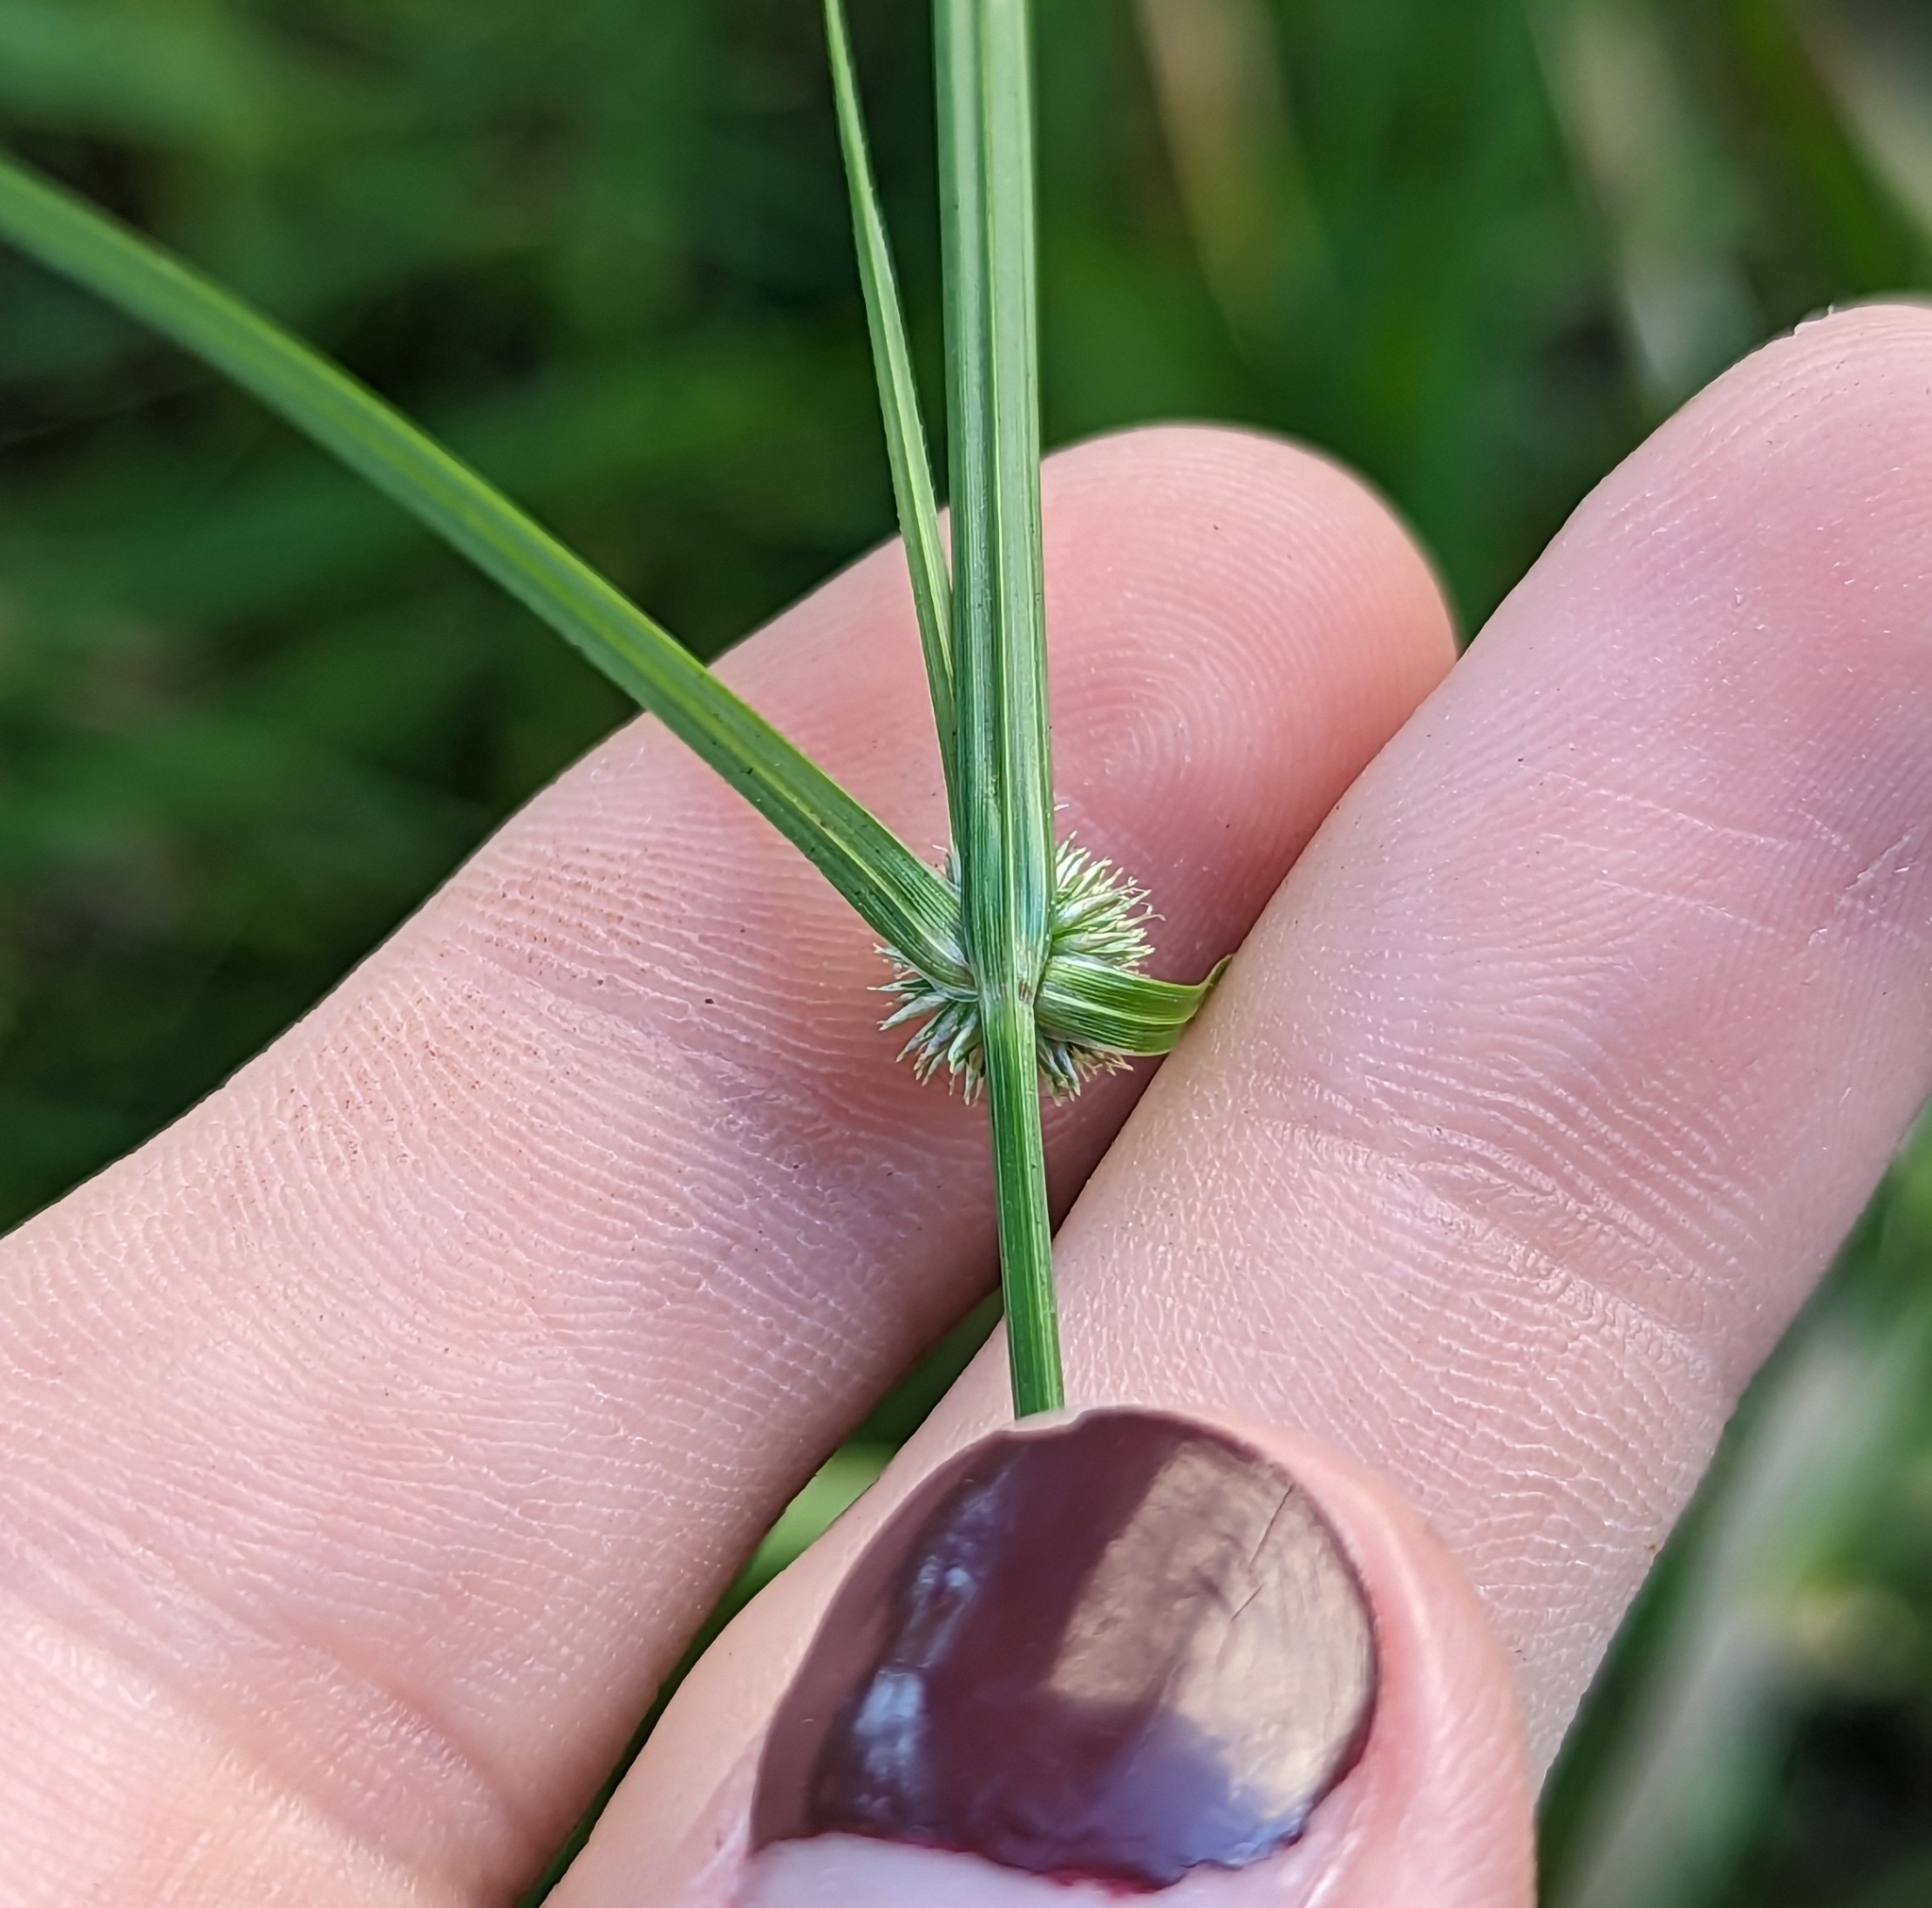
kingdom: Plantae
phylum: Tracheophyta
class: Liliopsida
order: Poales
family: Cyperaceae
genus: Cyperus
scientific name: Cyperus brevifolius
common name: Globe kyllinga
